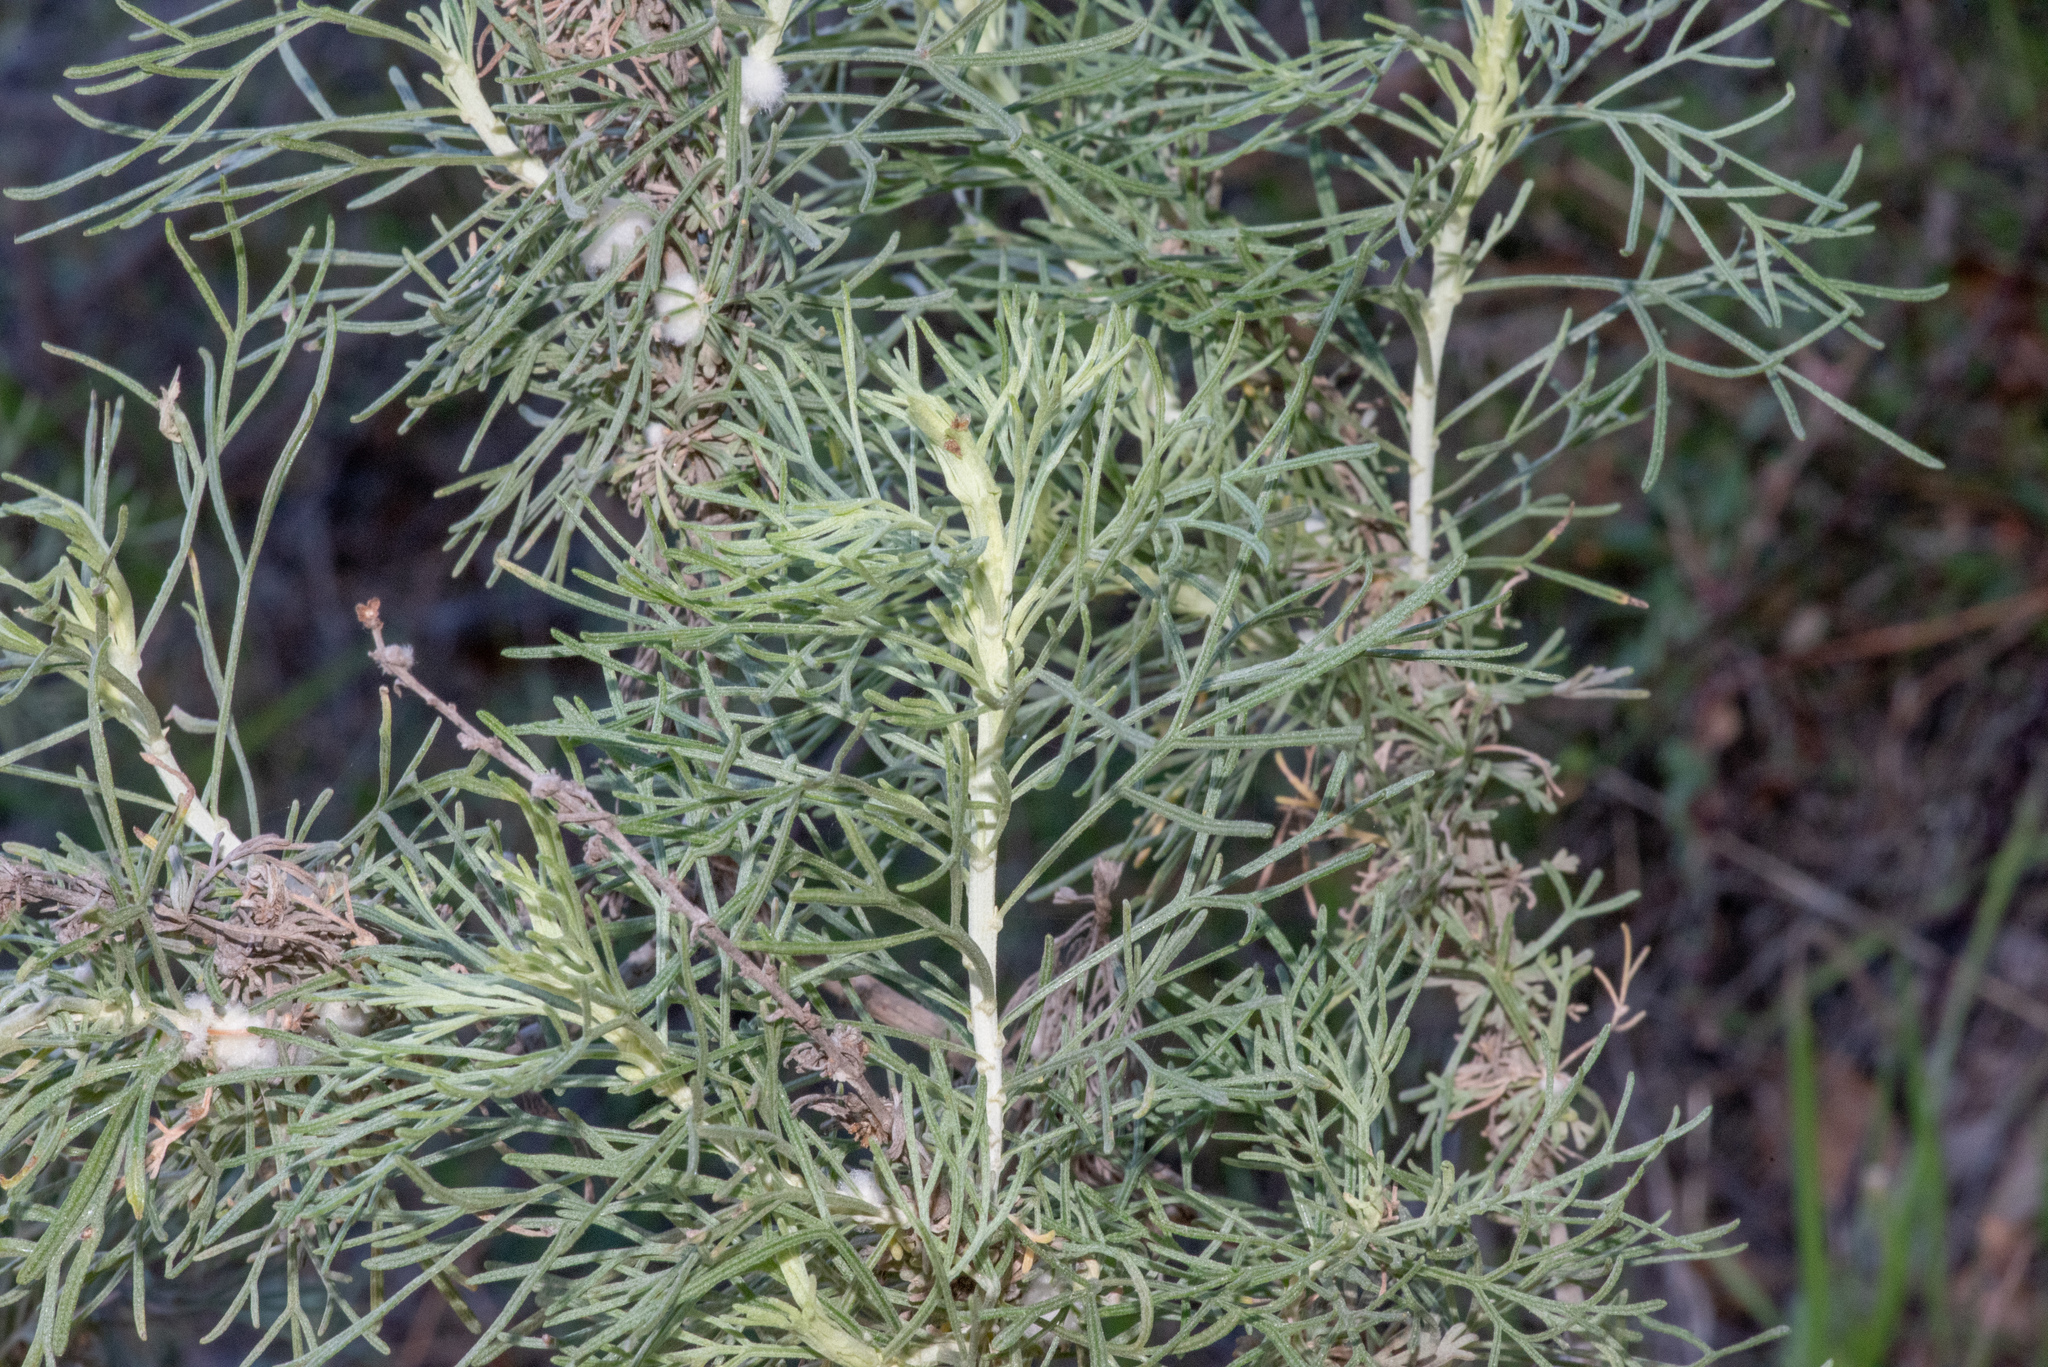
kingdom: Plantae
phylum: Tracheophyta
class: Magnoliopsida
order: Asterales
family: Asteraceae
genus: Artemisia
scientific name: Artemisia californica
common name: California sagebrush
